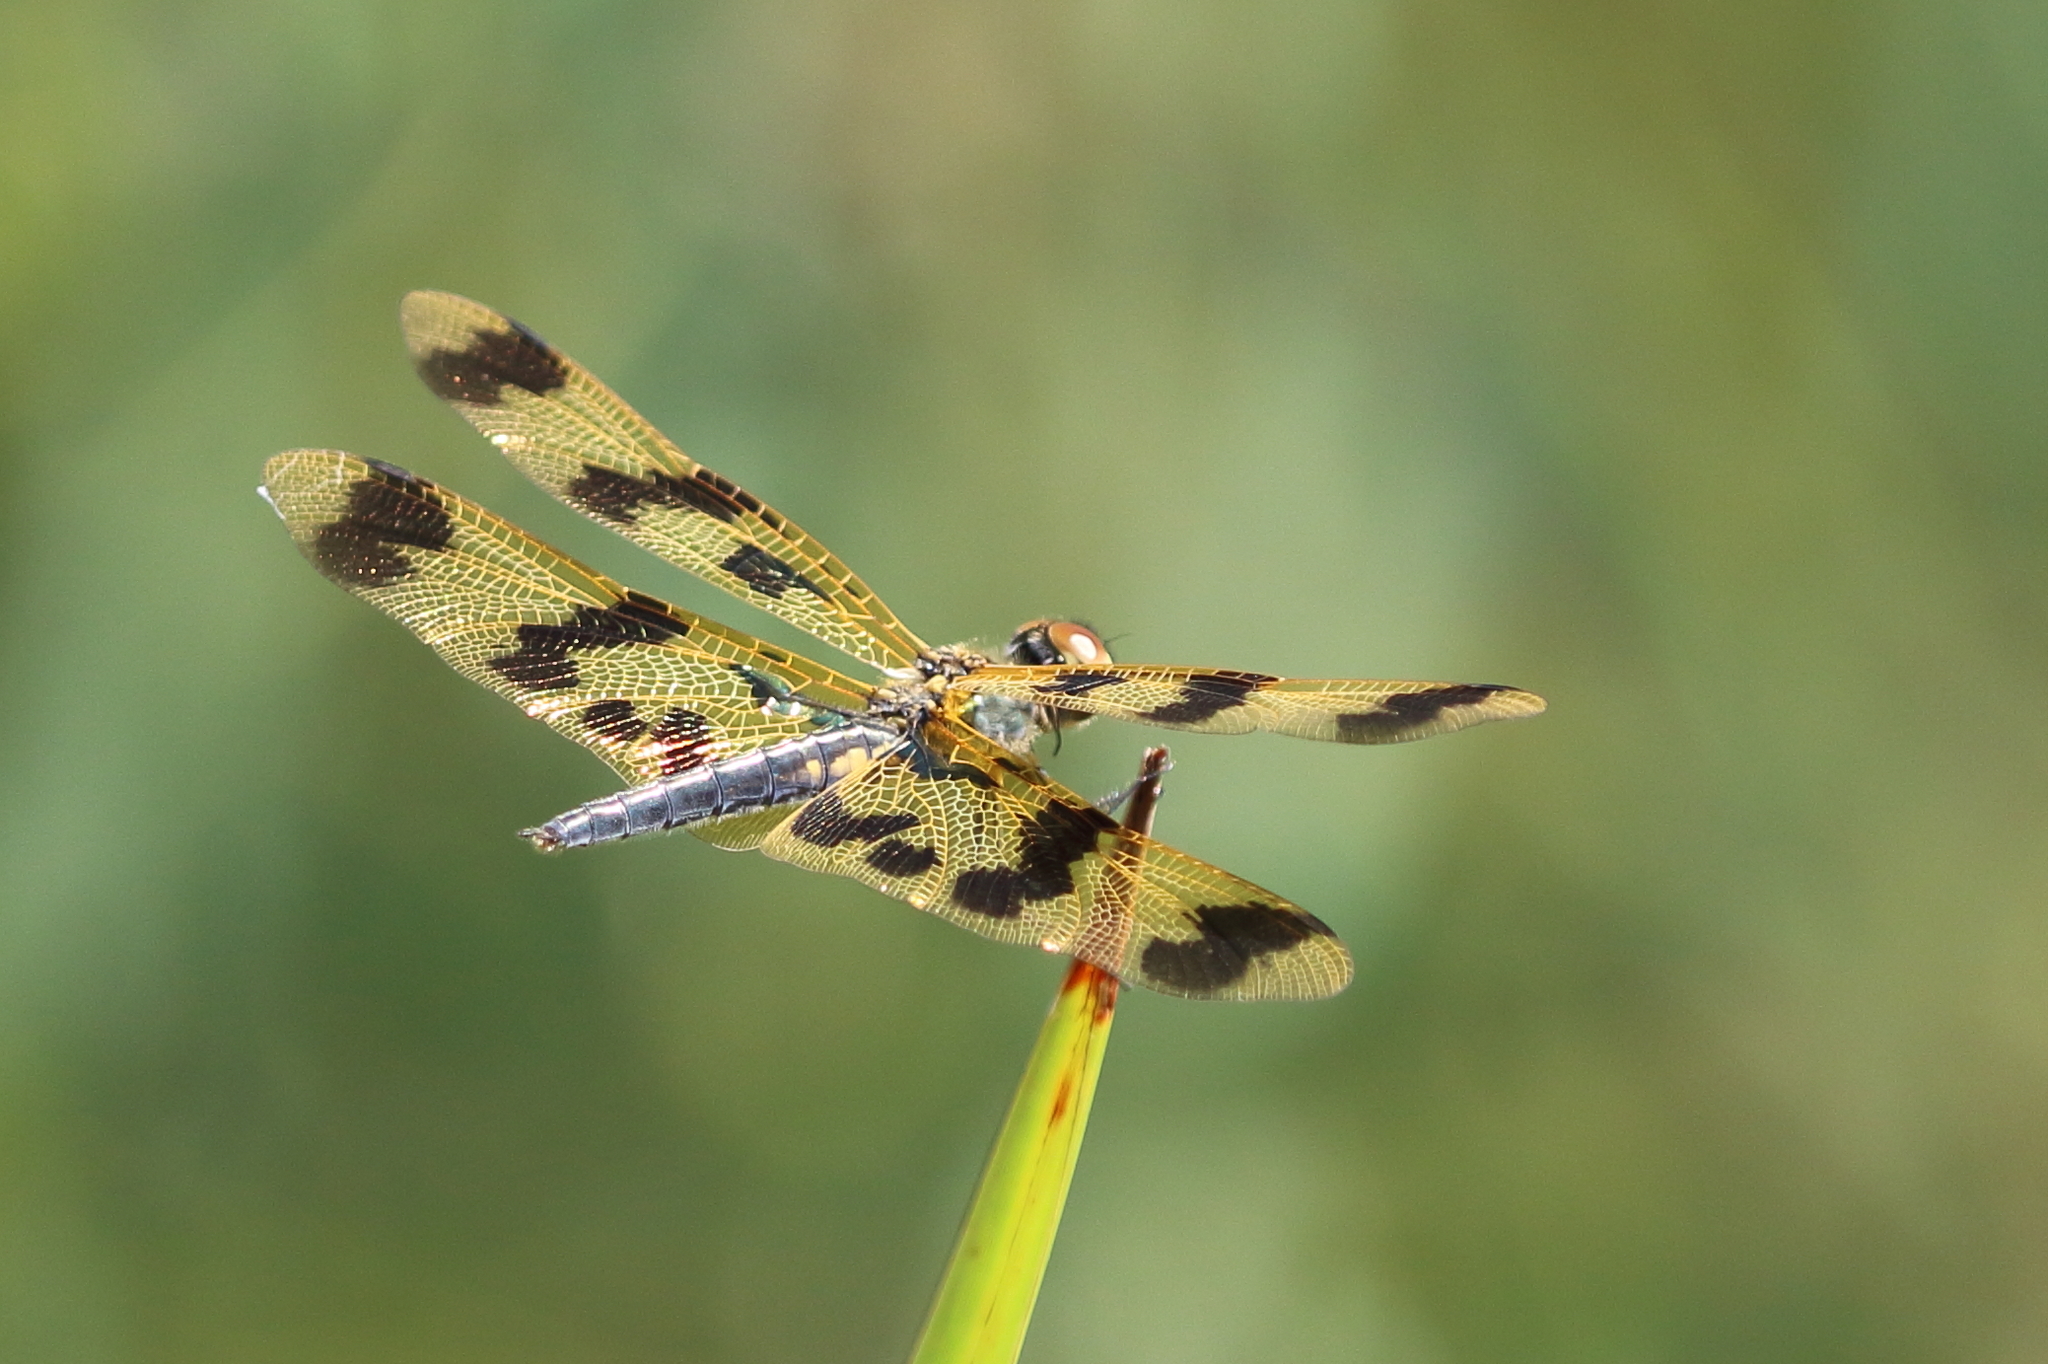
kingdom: Animalia
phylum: Arthropoda
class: Insecta
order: Odonata
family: Libellulidae
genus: Rhyothemis
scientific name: Rhyothemis graphiptera
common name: Graphic flutterer
